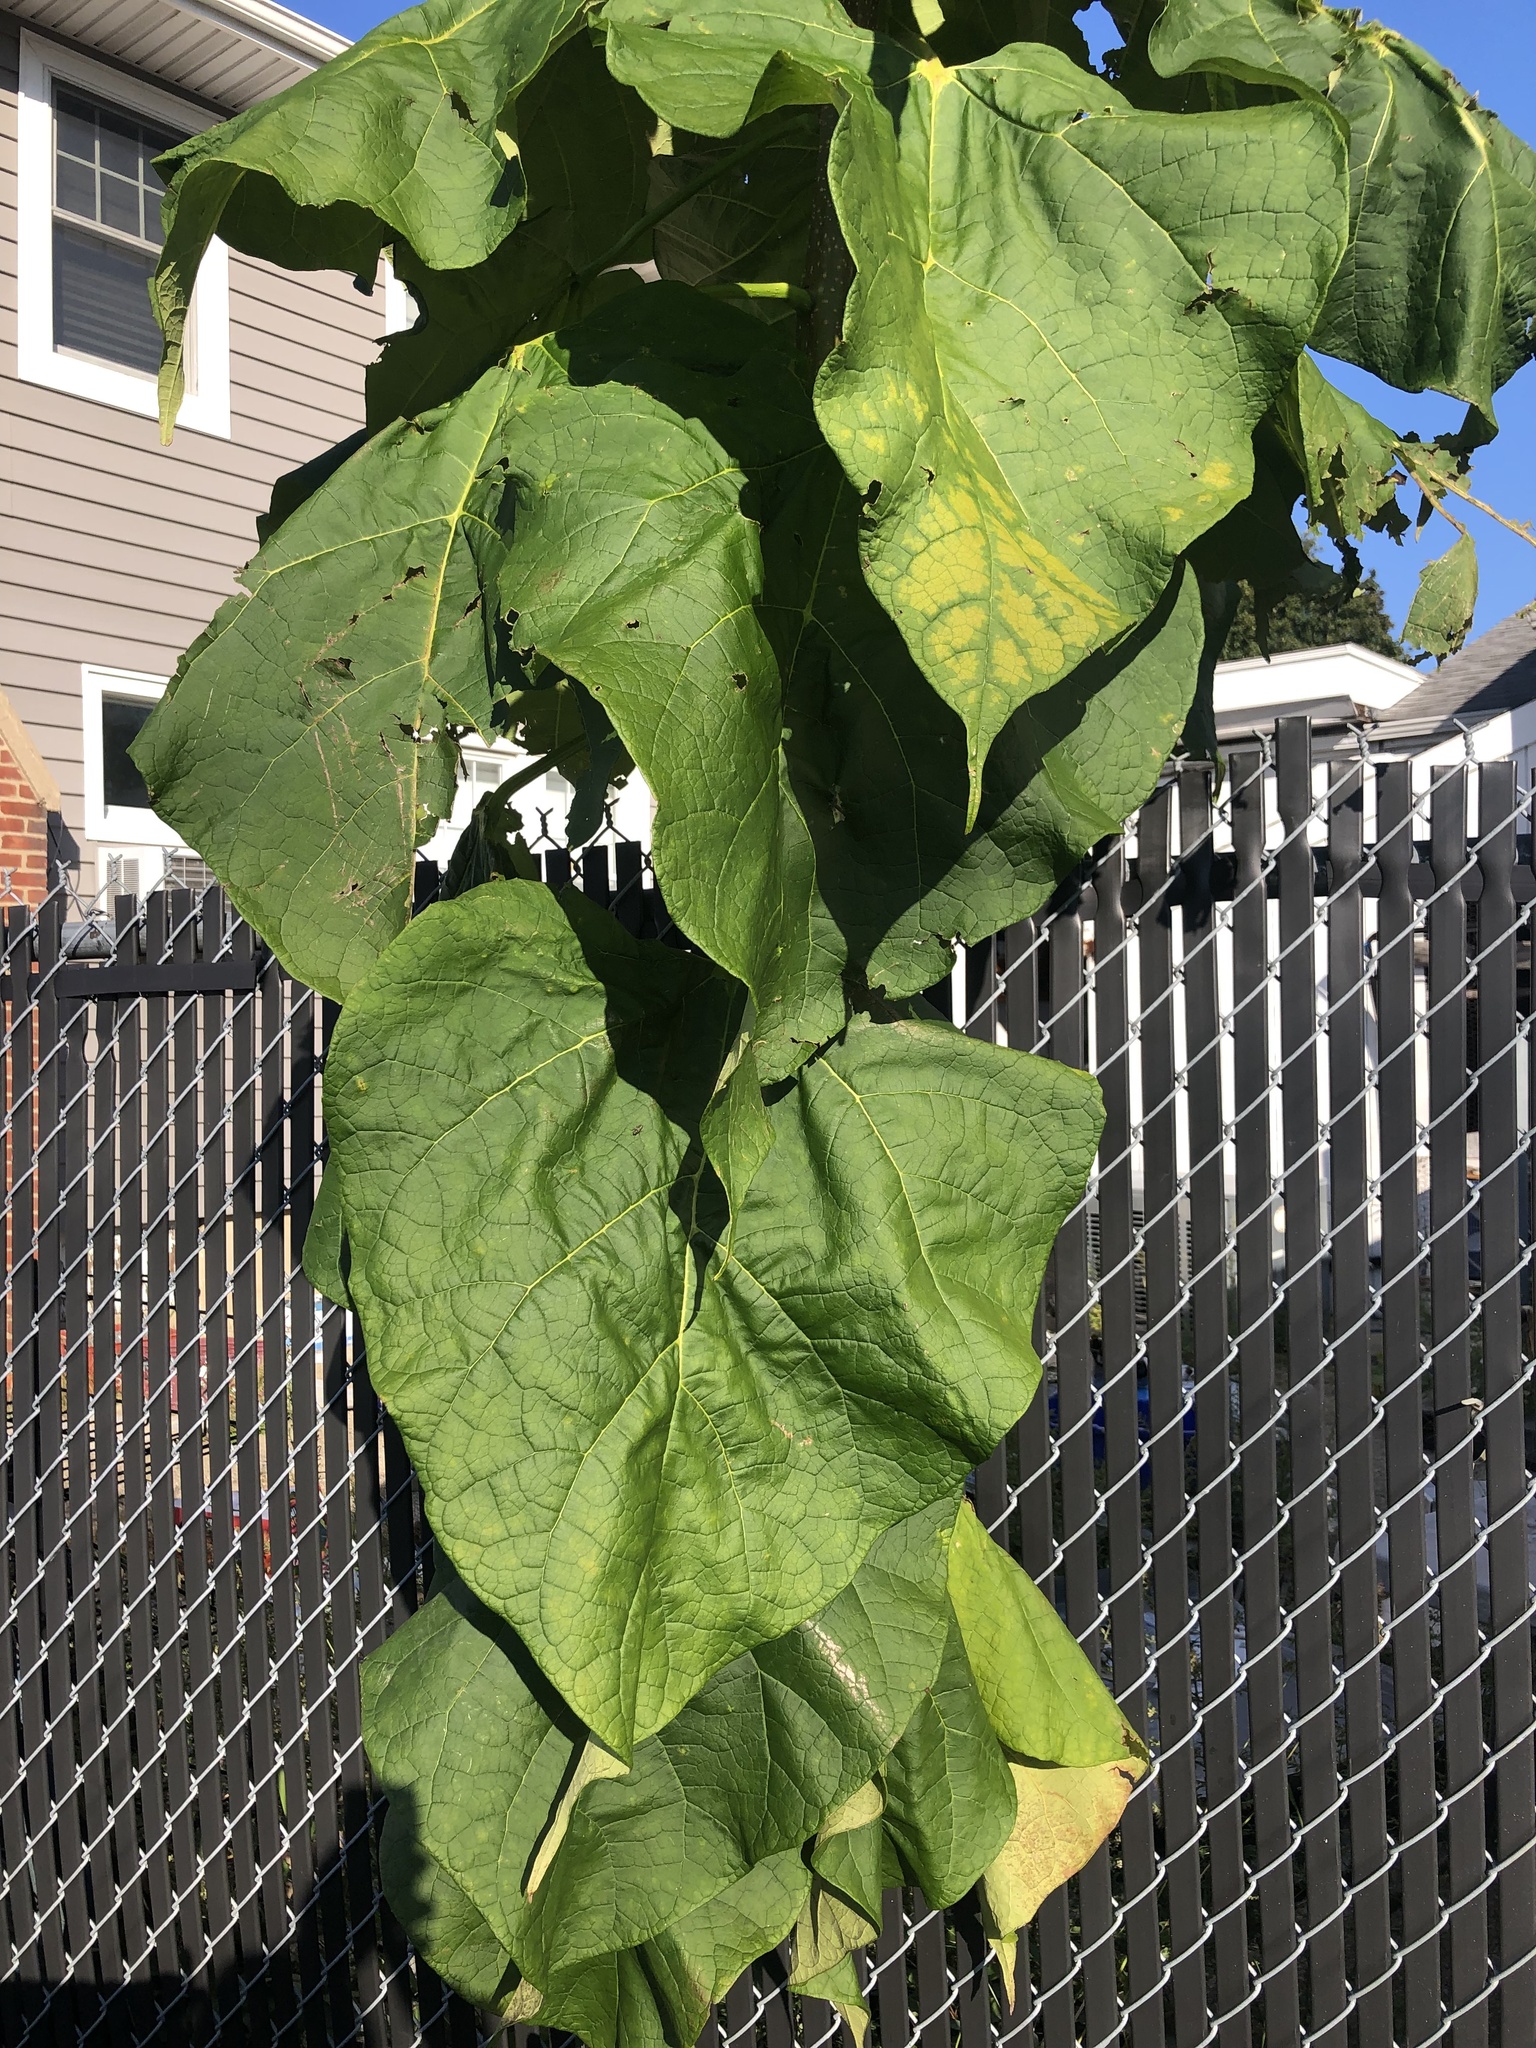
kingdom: Plantae
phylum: Tracheophyta
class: Magnoliopsida
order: Lamiales
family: Paulowniaceae
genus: Paulownia
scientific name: Paulownia tomentosa
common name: Foxglove-tree
